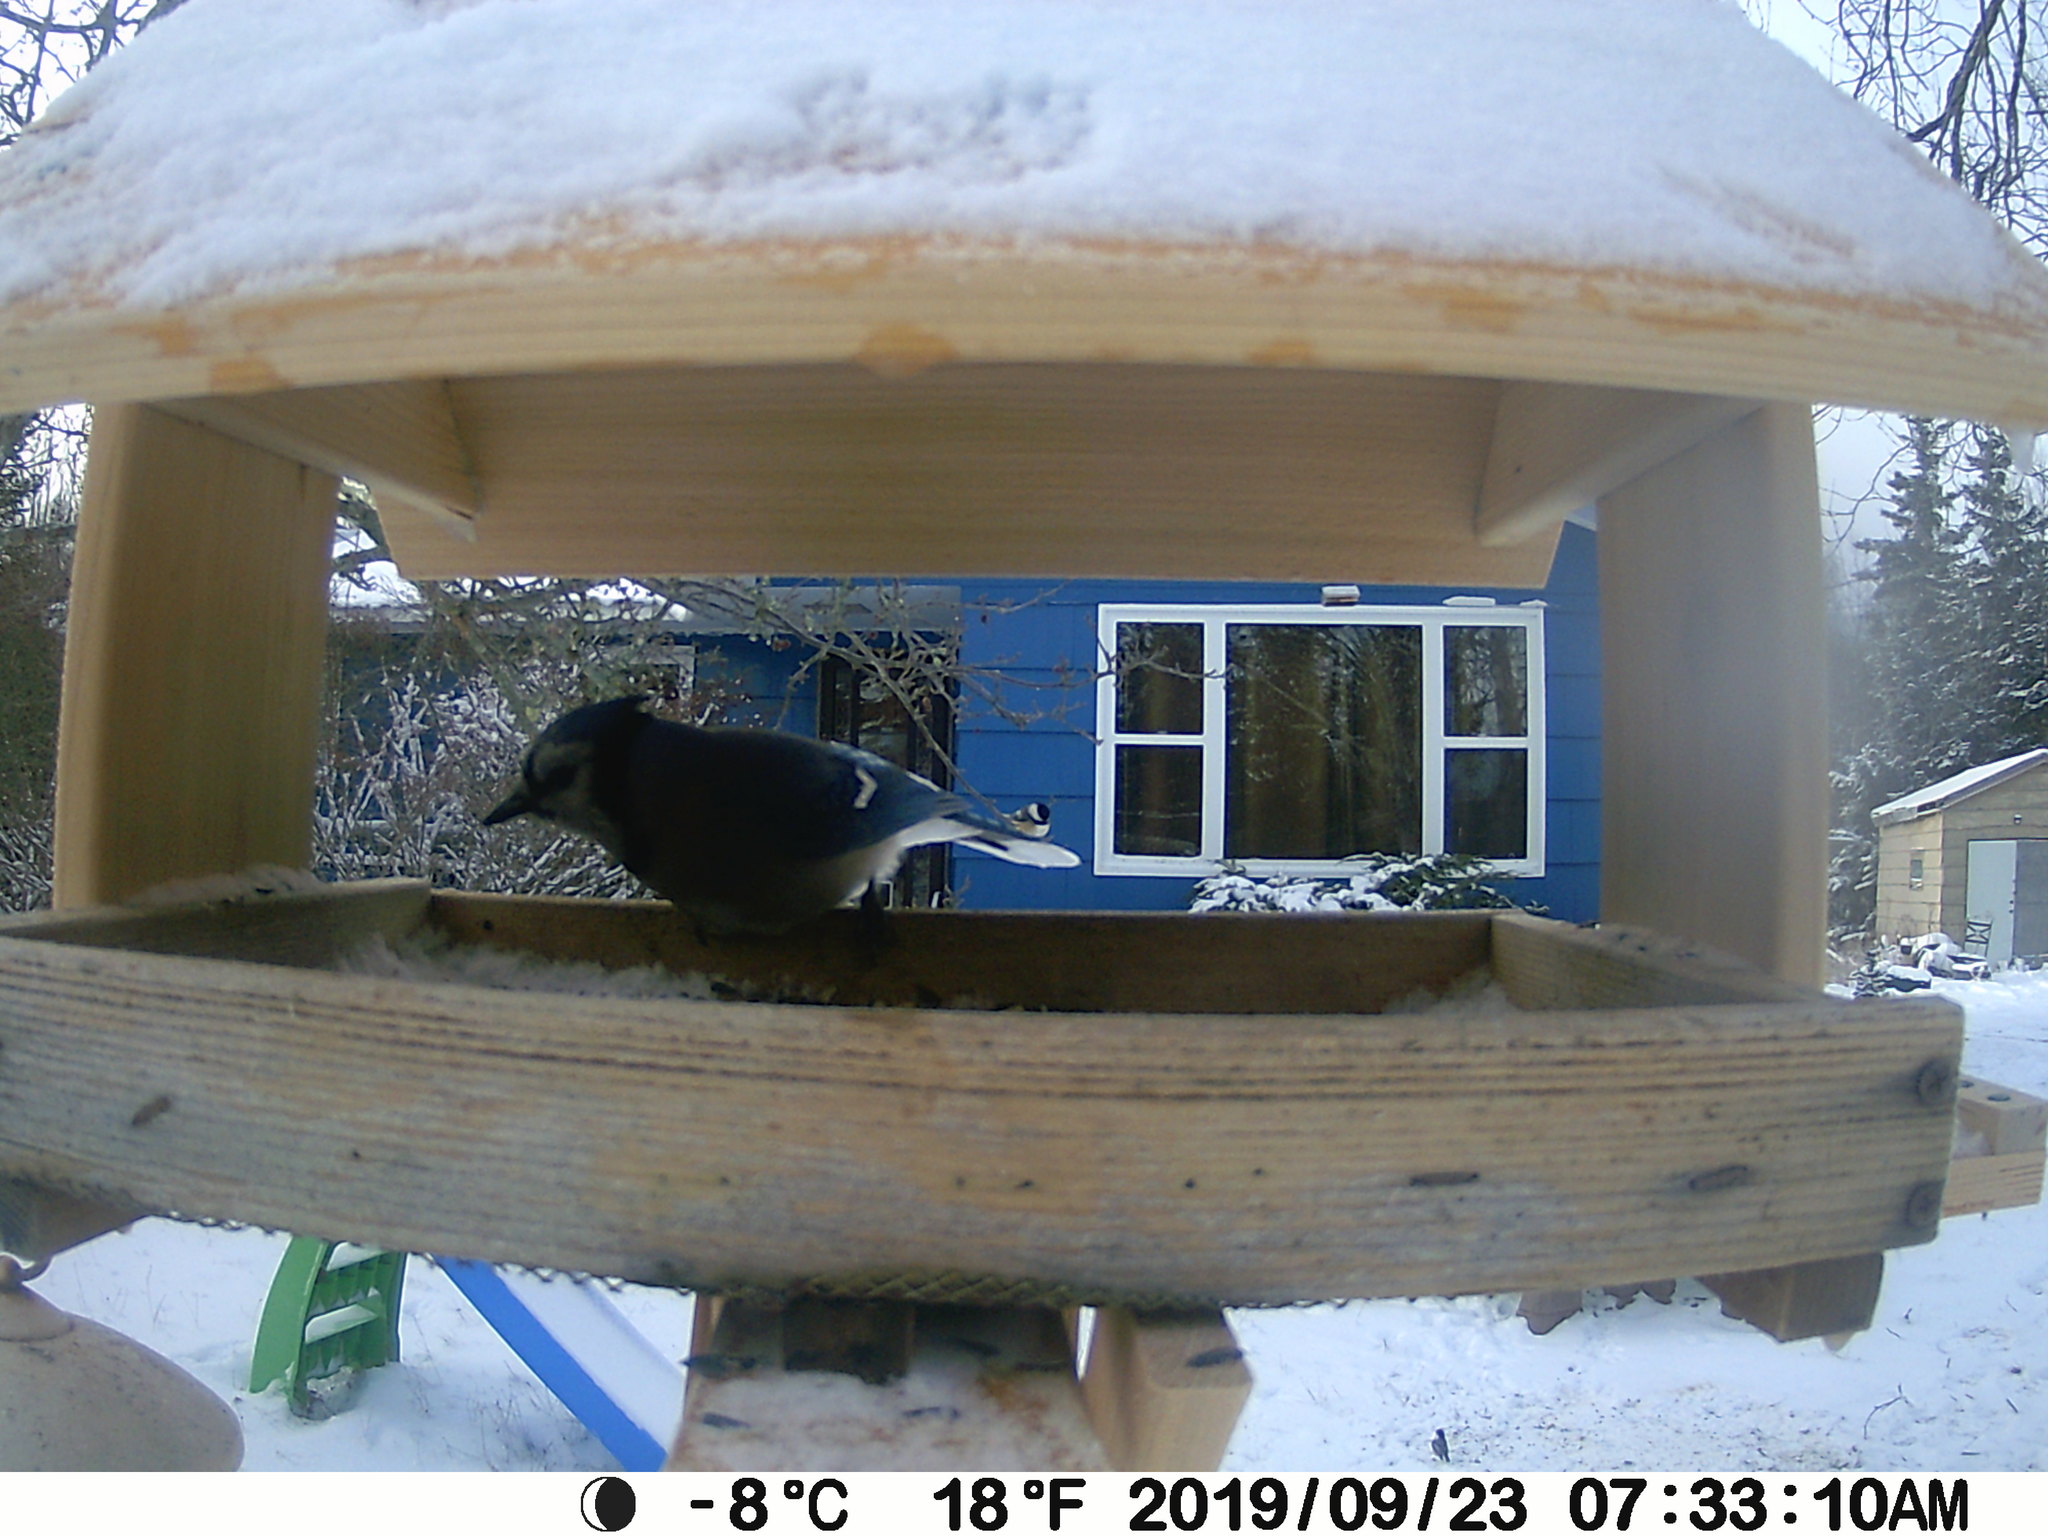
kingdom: Animalia
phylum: Chordata
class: Aves
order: Passeriformes
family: Corvidae
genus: Cyanocitta
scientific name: Cyanocitta cristata
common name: Blue jay
